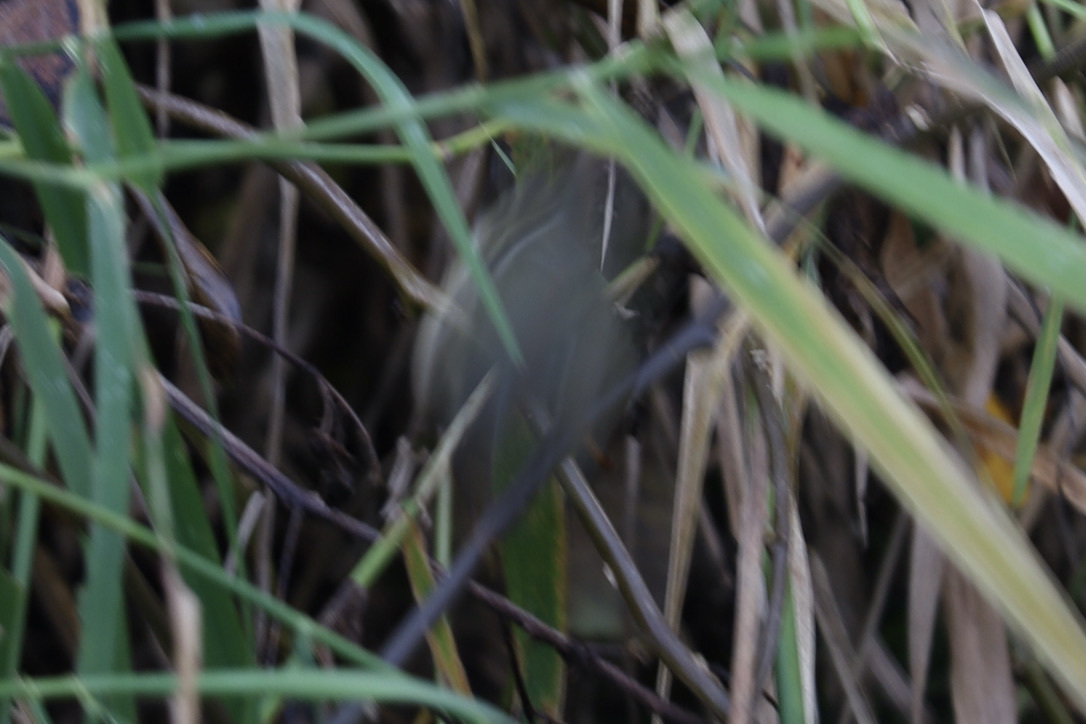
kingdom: Animalia
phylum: Chordata
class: Aves
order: Passeriformes
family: Regulidae
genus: Regulus
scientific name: Regulus calendula
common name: Ruby-crowned kinglet
